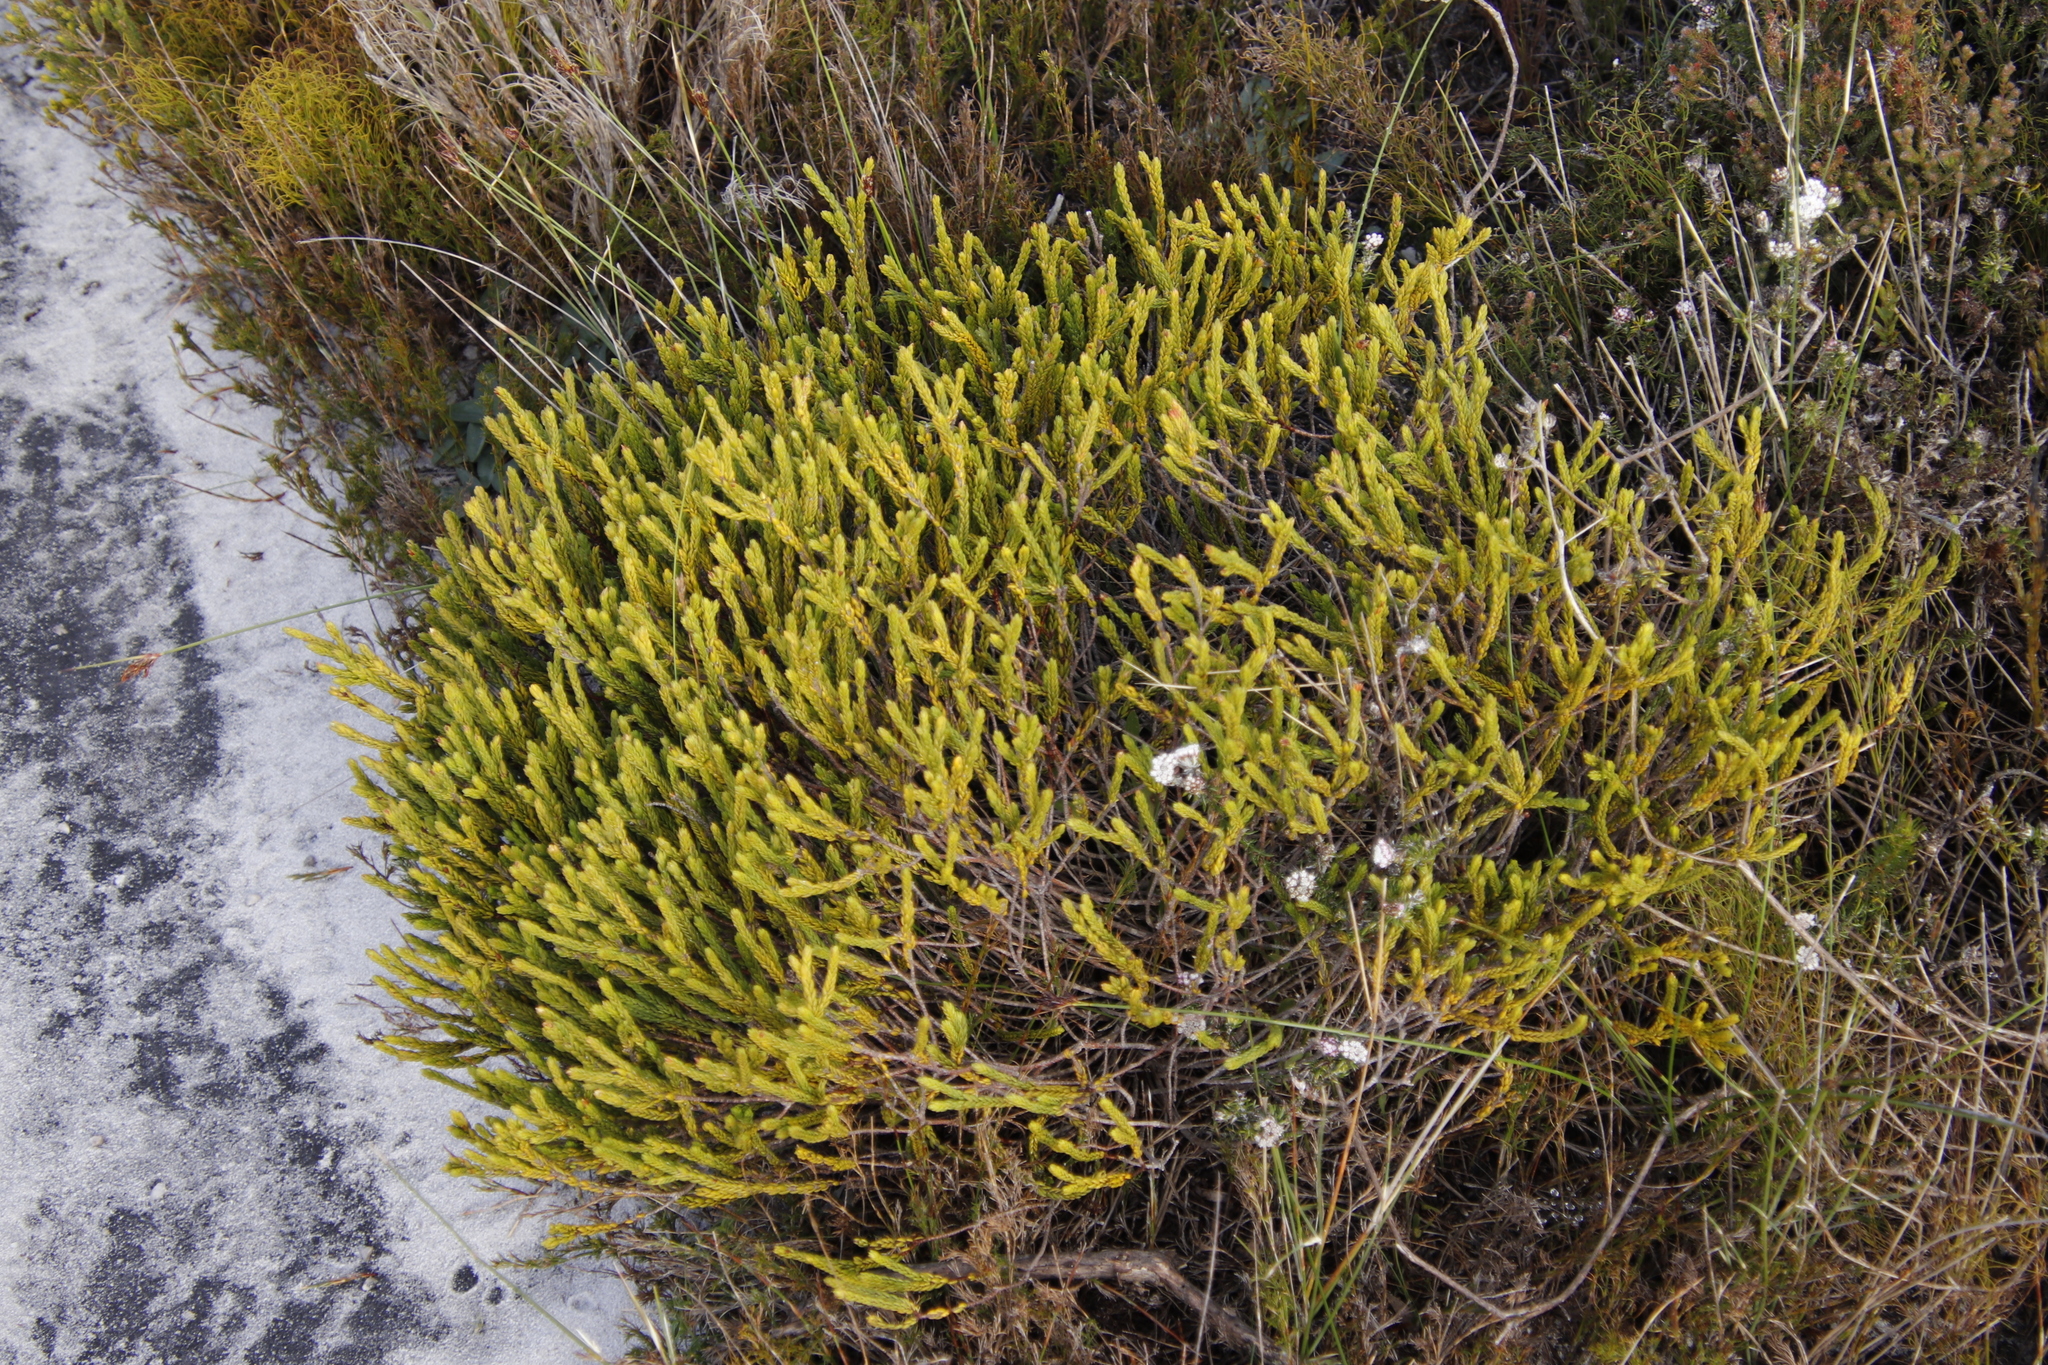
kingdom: Plantae
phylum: Tracheophyta
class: Magnoliopsida
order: Malvales
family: Thymelaeaceae
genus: Lachnaea
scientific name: Lachnaea grandiflora
